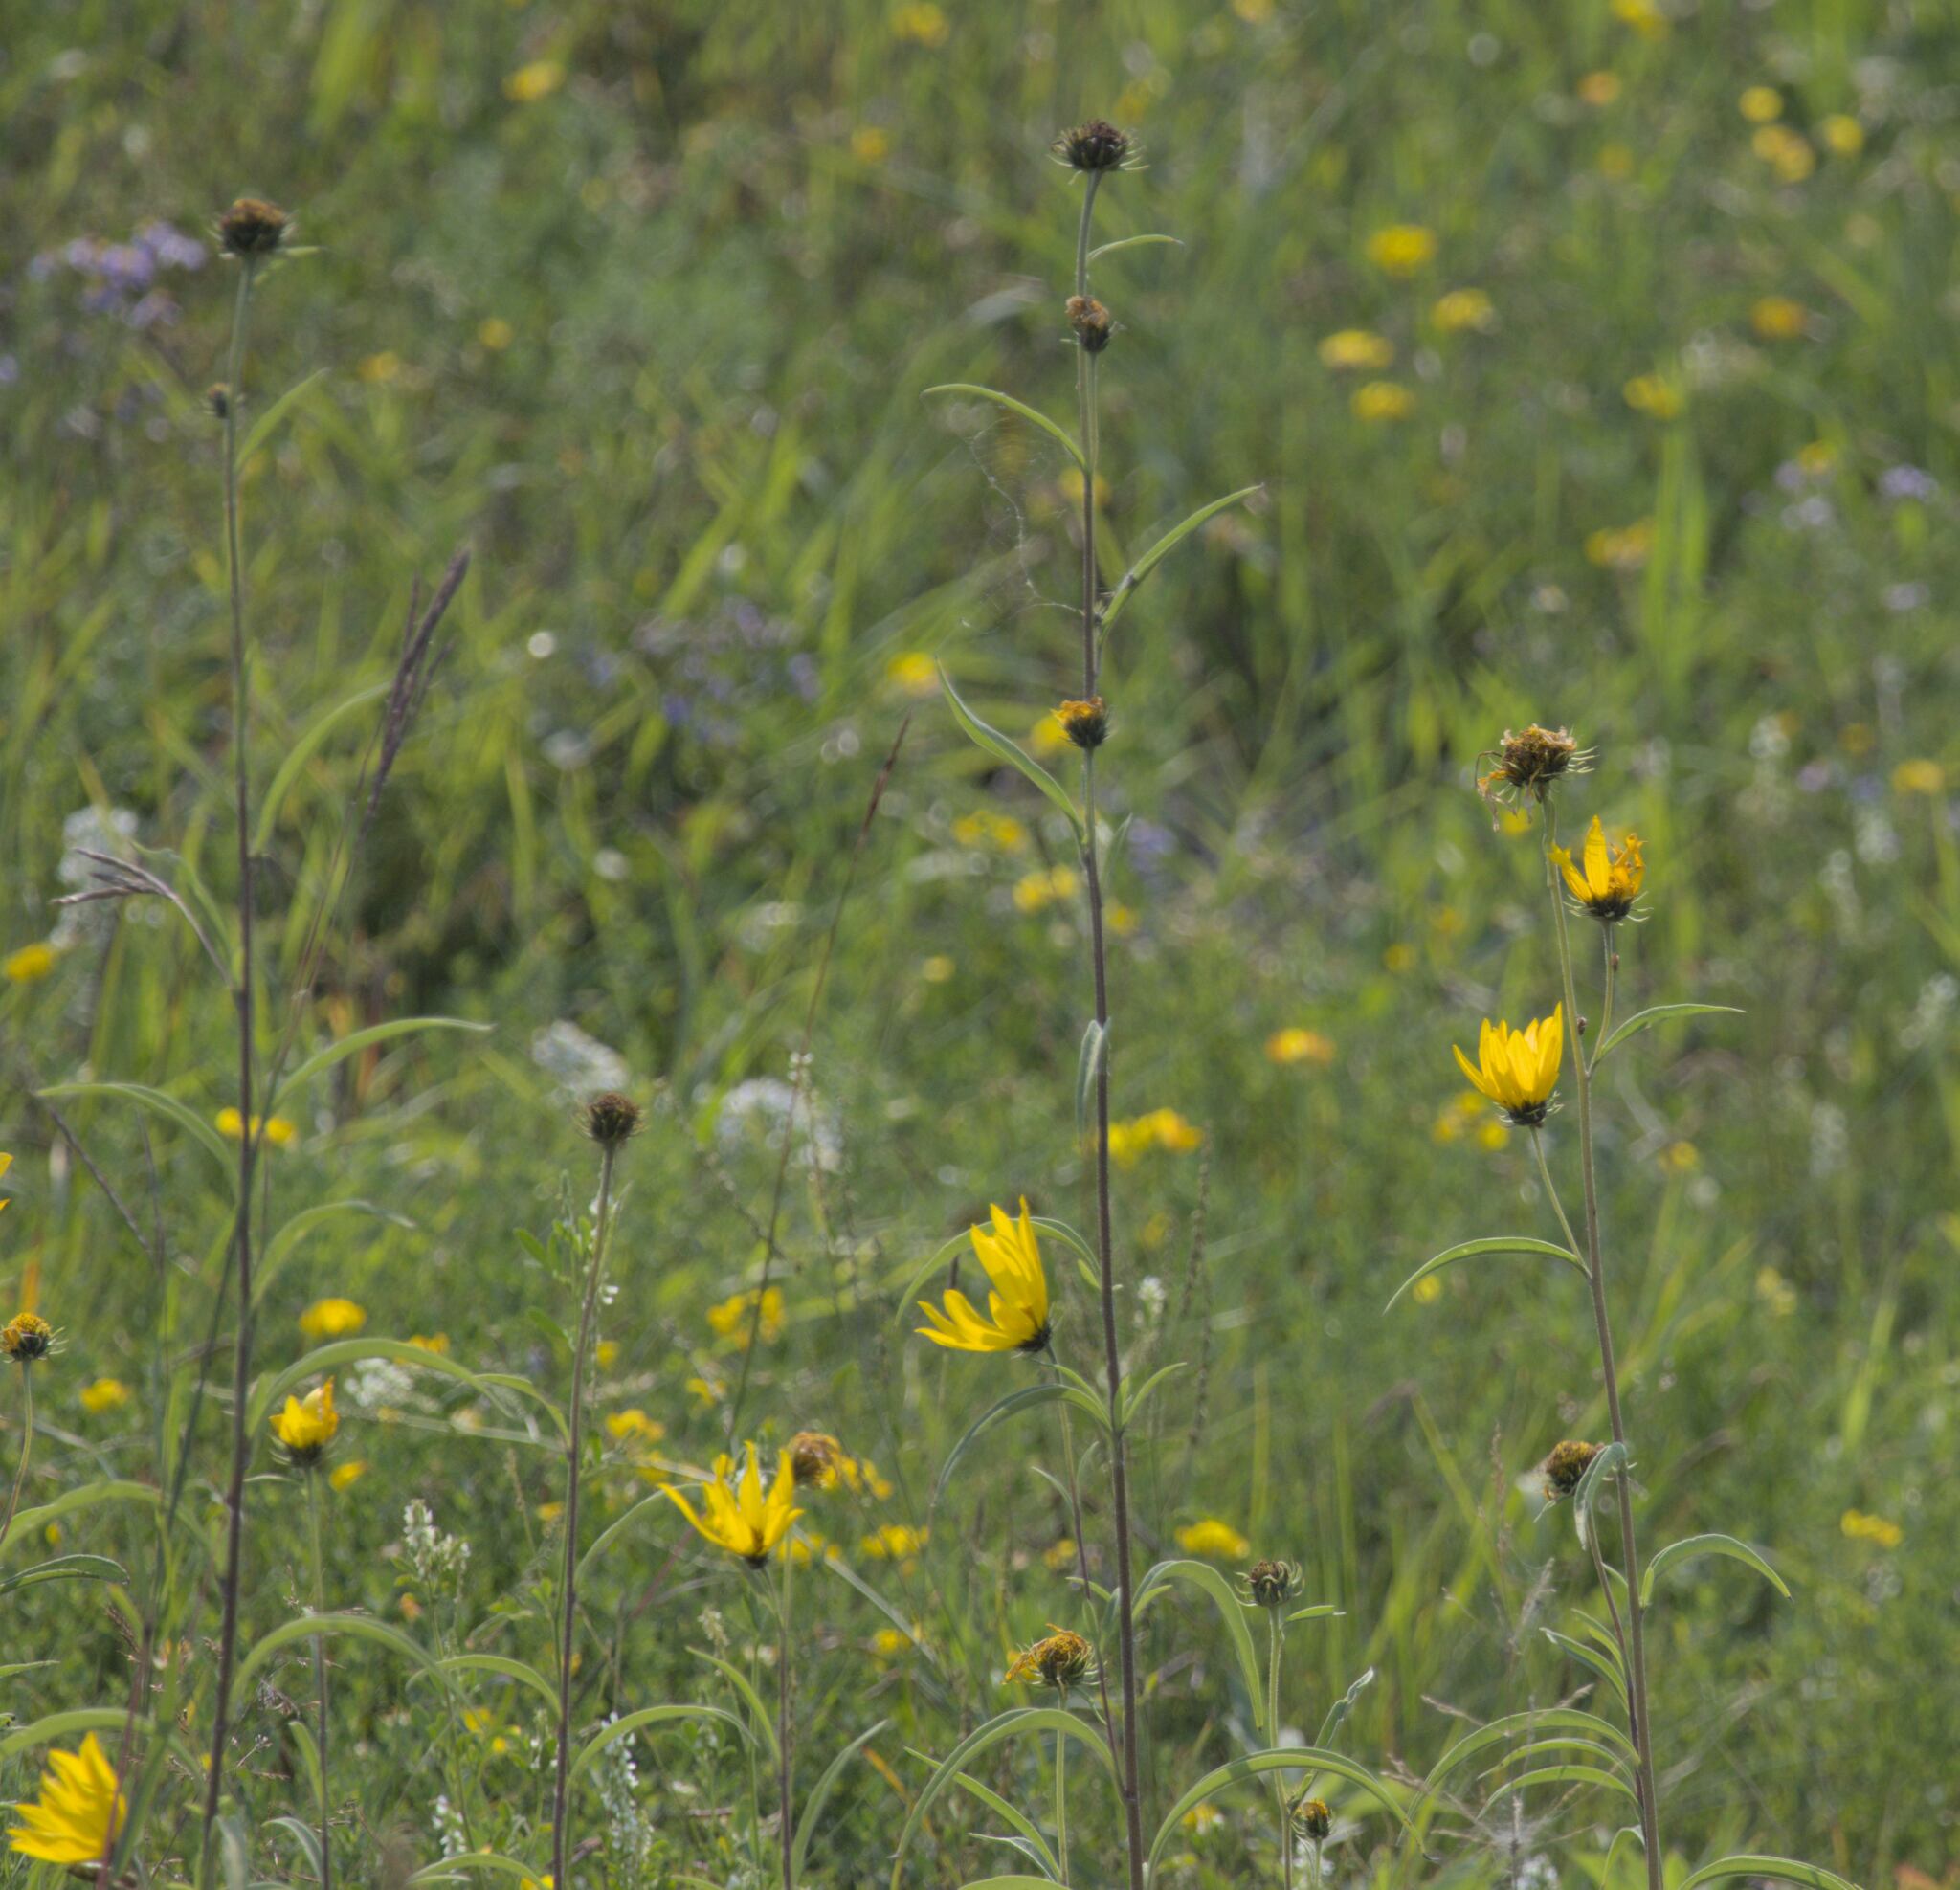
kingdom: Plantae
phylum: Tracheophyta
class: Magnoliopsida
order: Asterales
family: Asteraceae
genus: Helianthus
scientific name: Helianthus maximiliani
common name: Maximilian's sunflower
